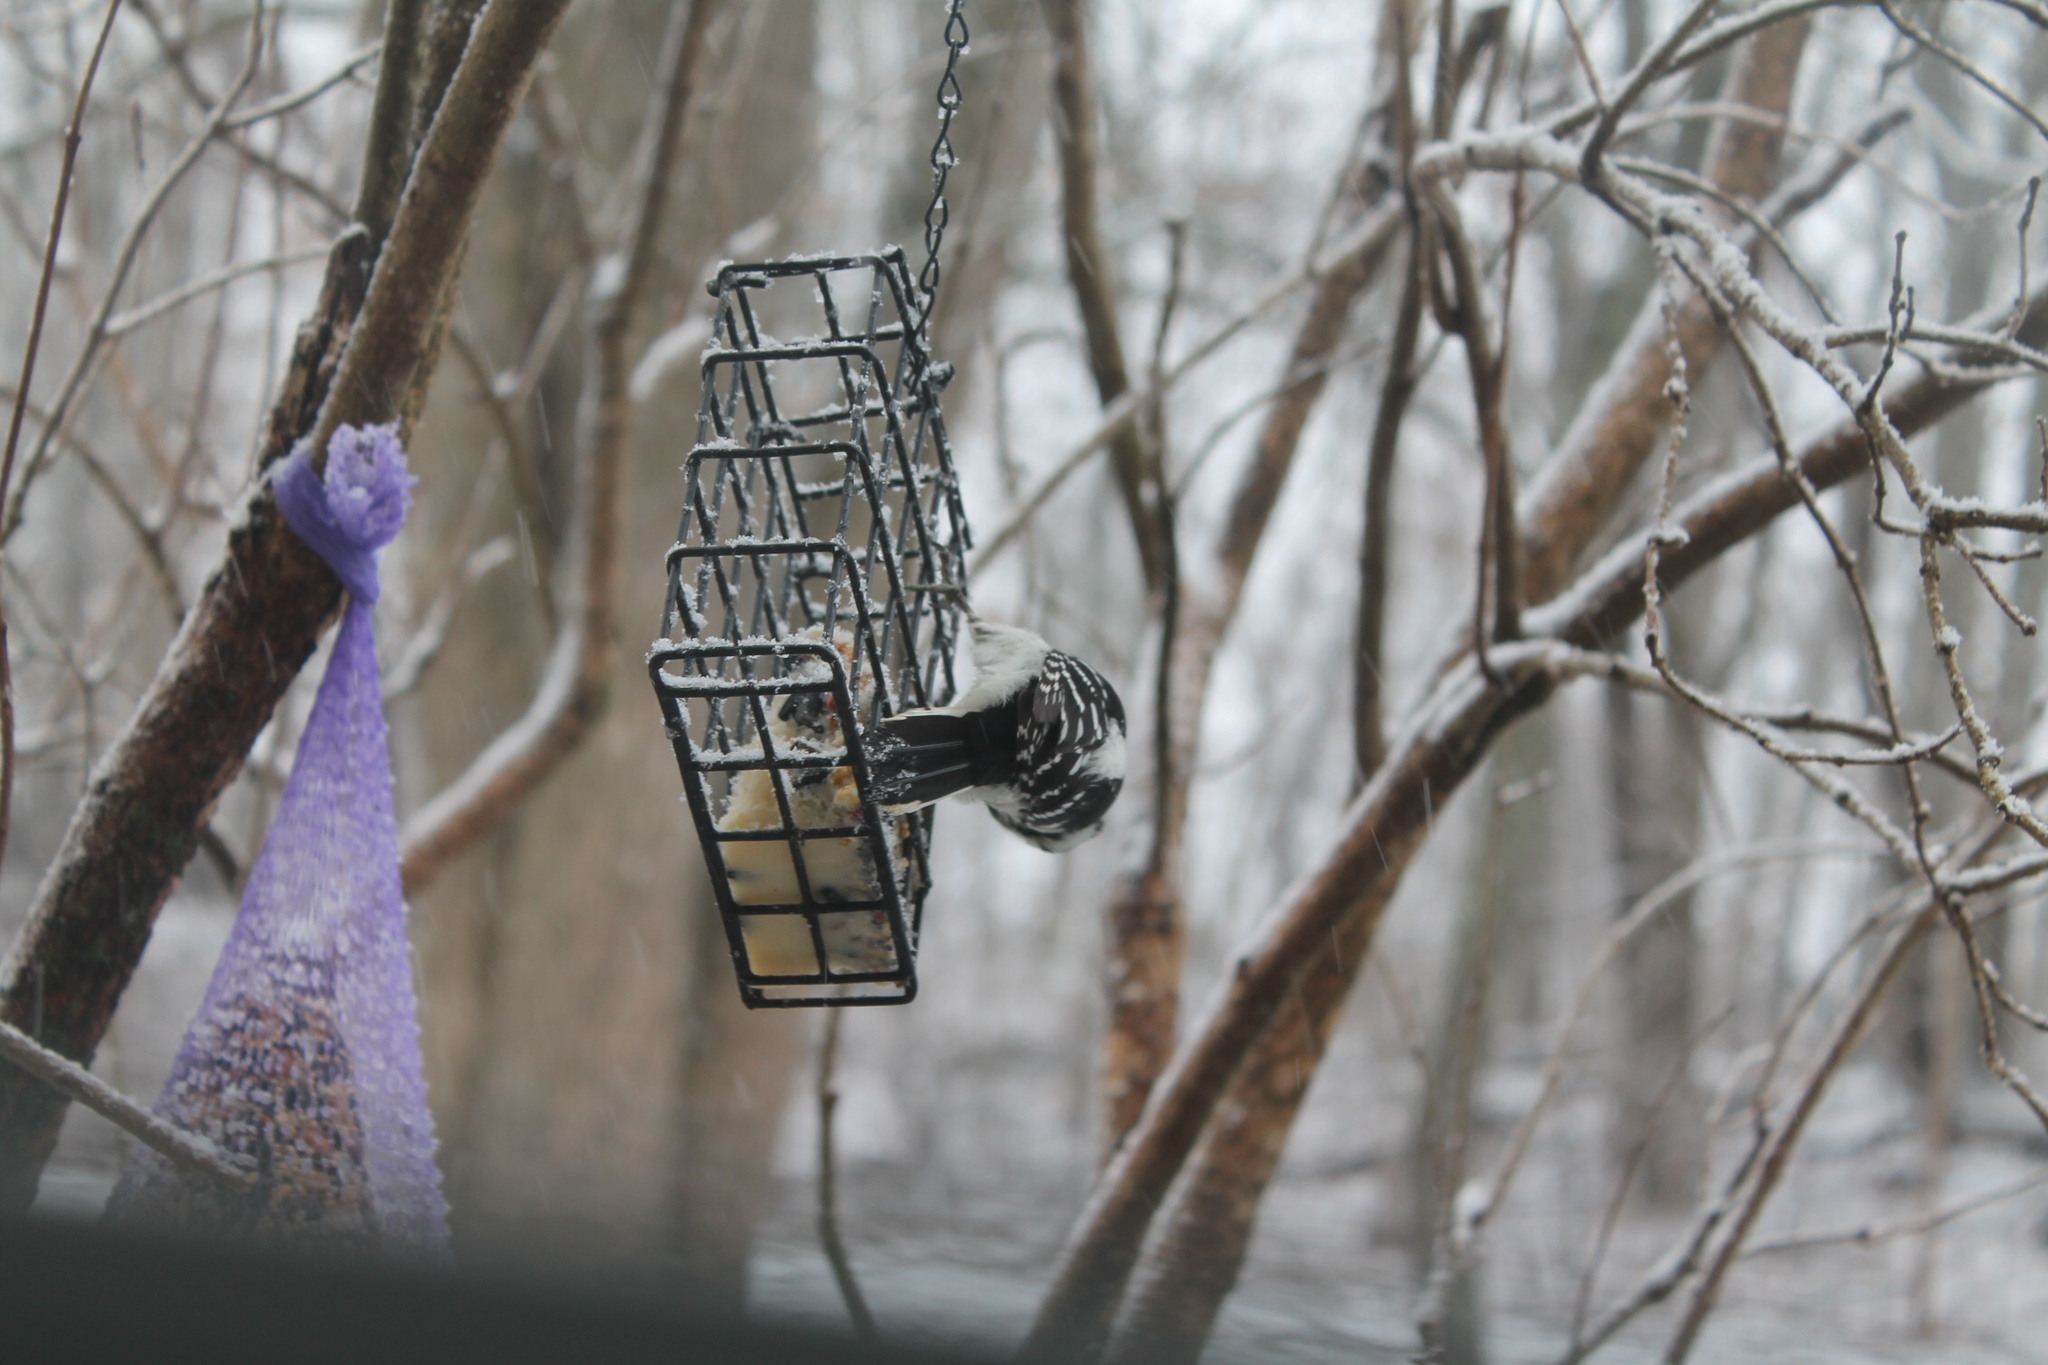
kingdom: Animalia
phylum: Chordata
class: Aves
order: Piciformes
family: Picidae
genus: Dryobates
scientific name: Dryobates pubescens
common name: Downy woodpecker
